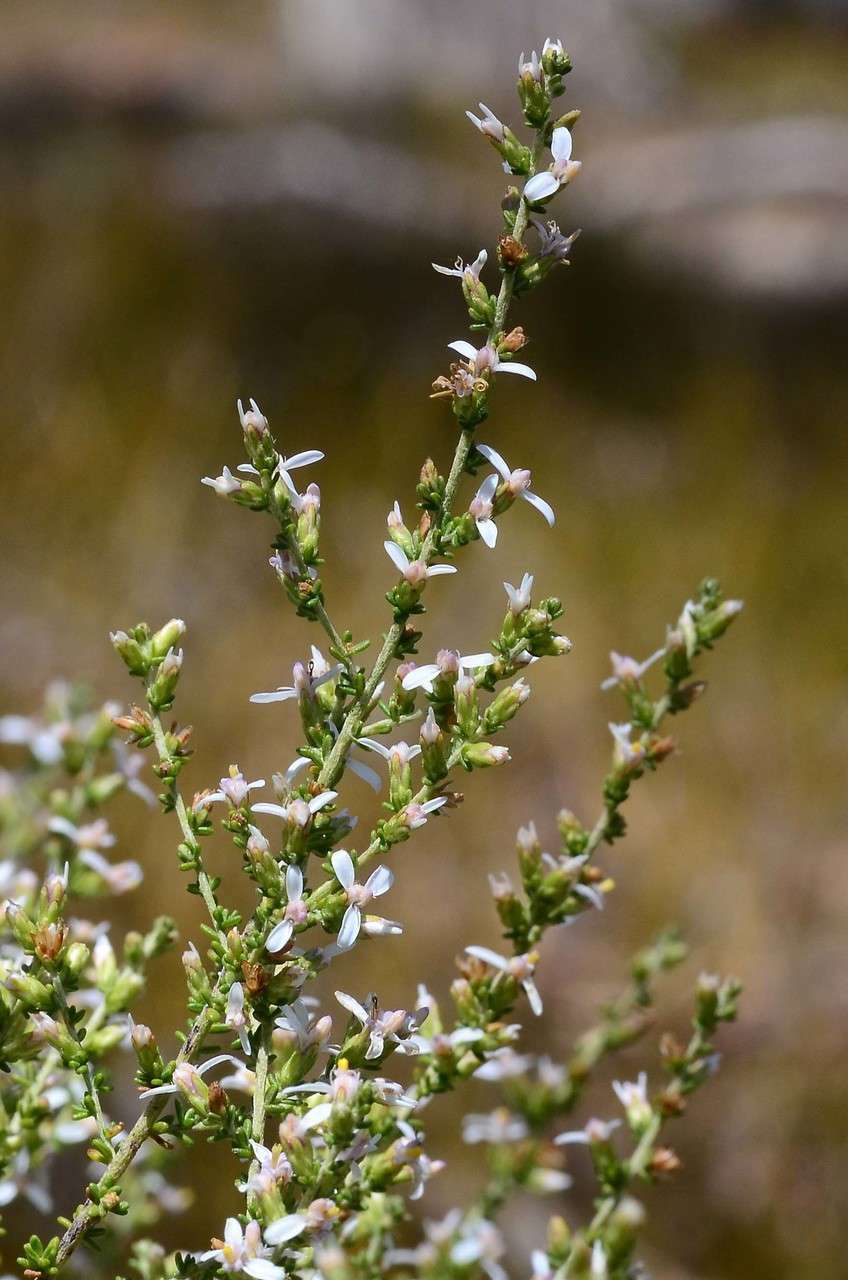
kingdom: Plantae
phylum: Tracheophyta
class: Magnoliopsida
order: Asterales
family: Asteraceae
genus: Olearia
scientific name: Olearia floribunda
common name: Heath daisybush
